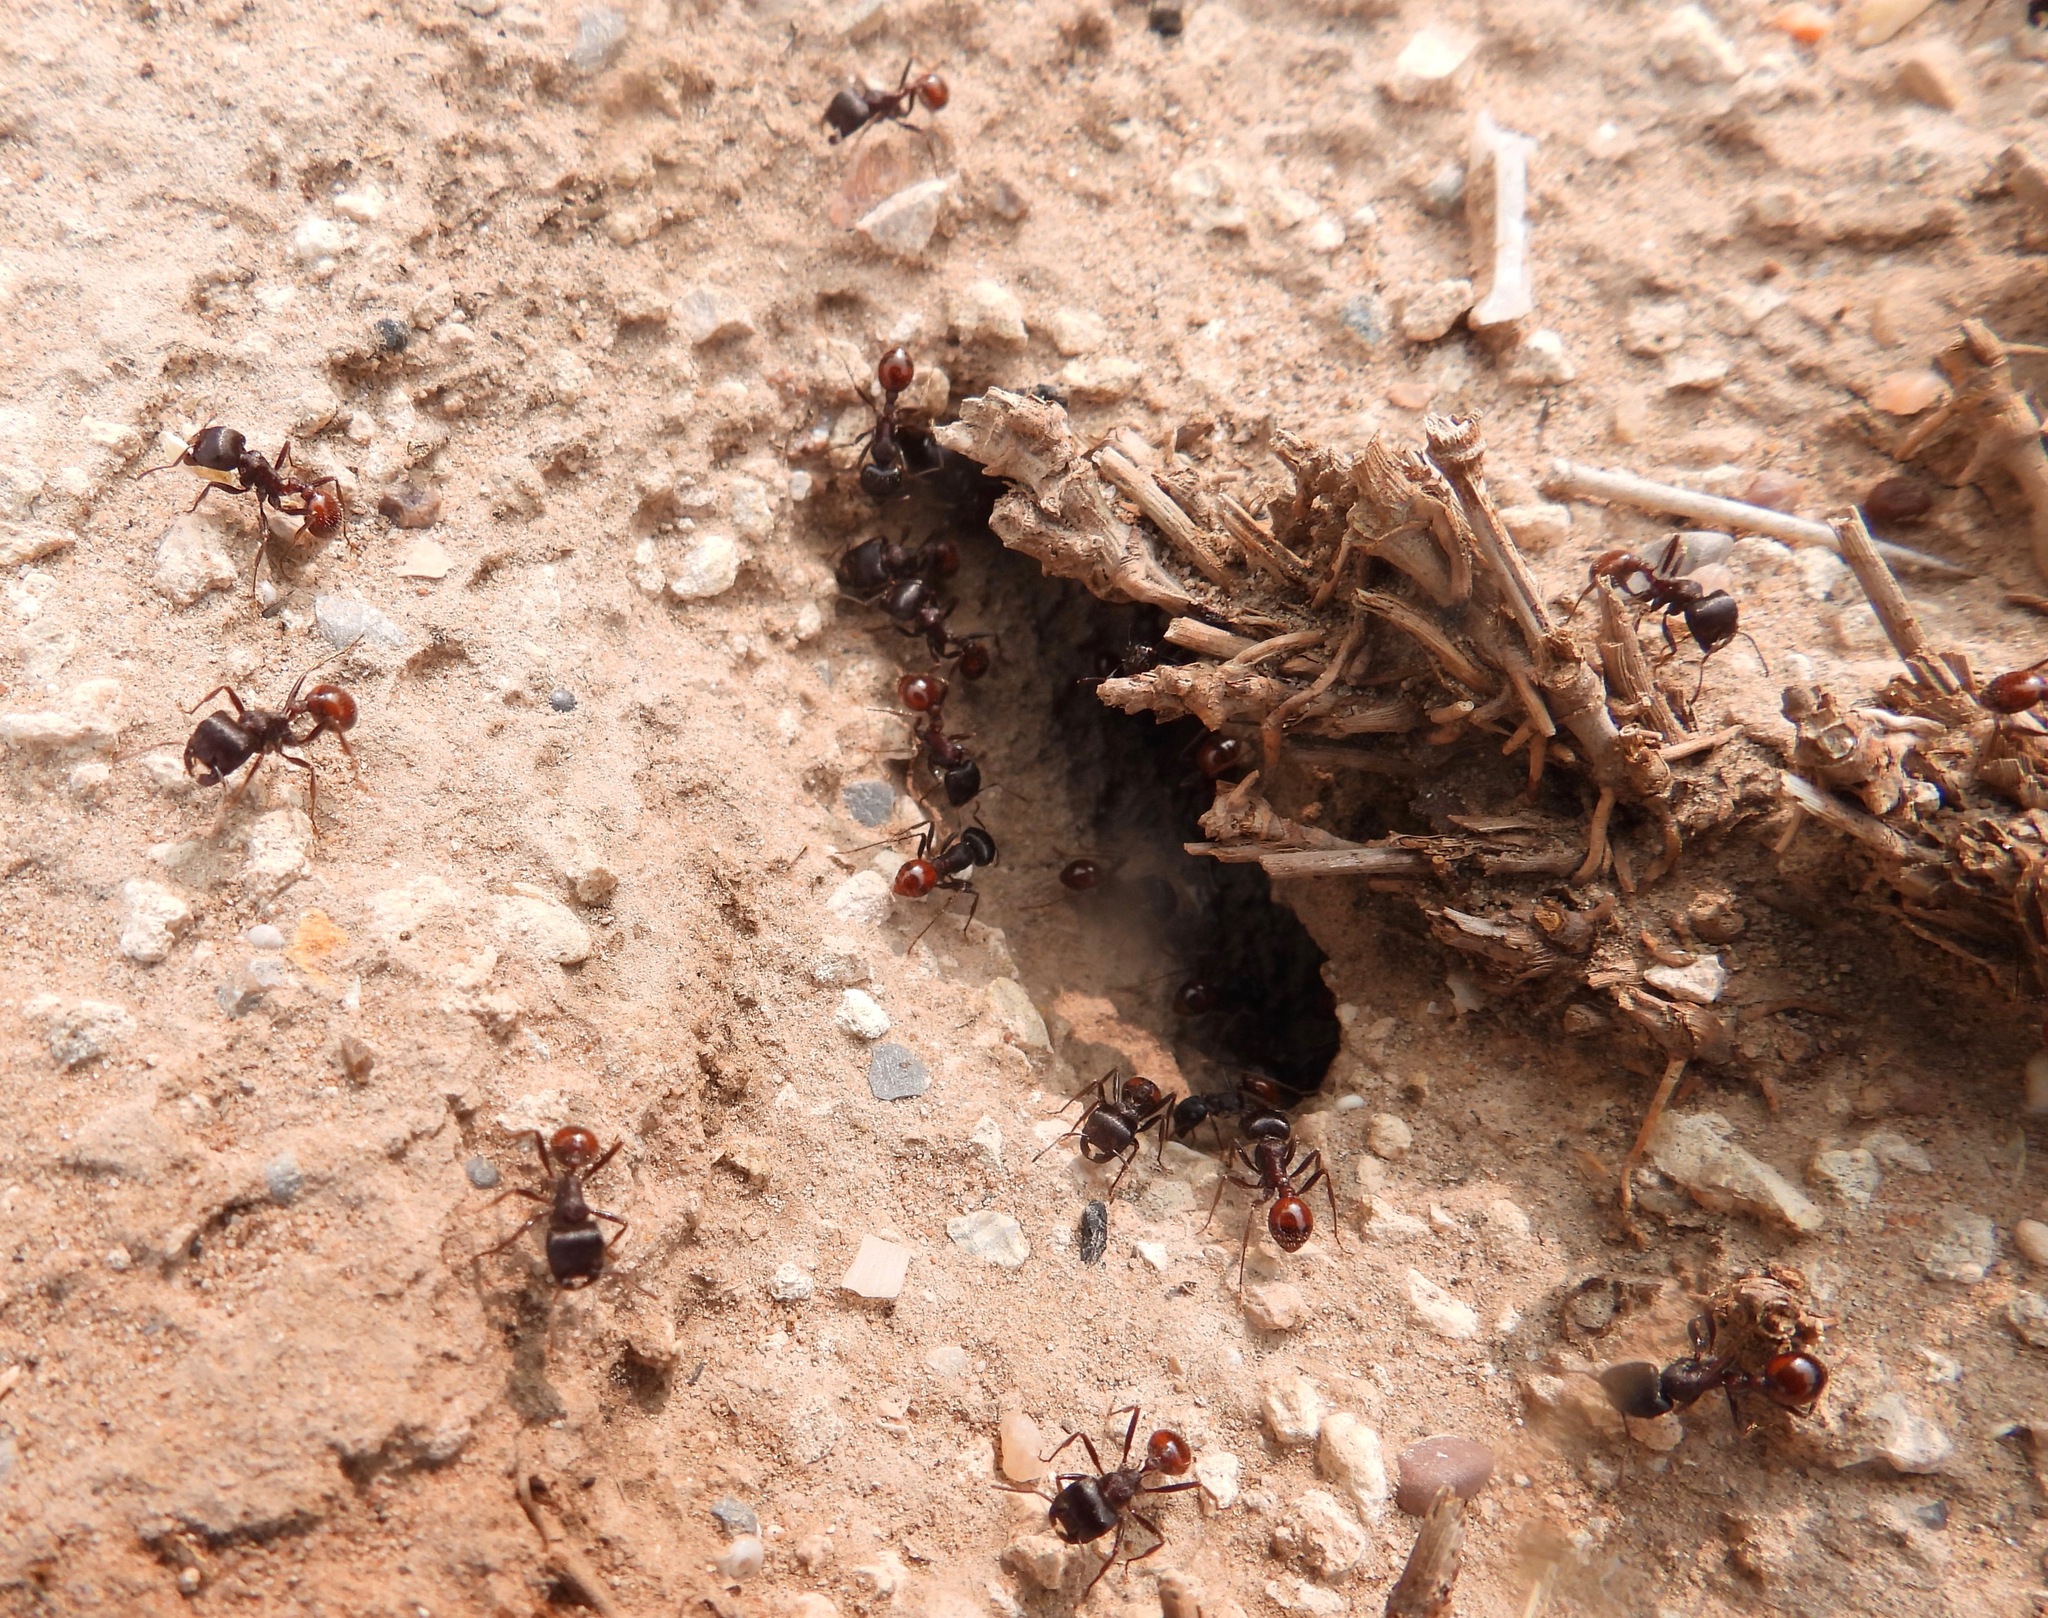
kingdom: Animalia
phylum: Arthropoda
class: Insecta
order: Hymenoptera
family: Formicidae
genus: Pogonomyrmex
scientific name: Pogonomyrmex rugosus
